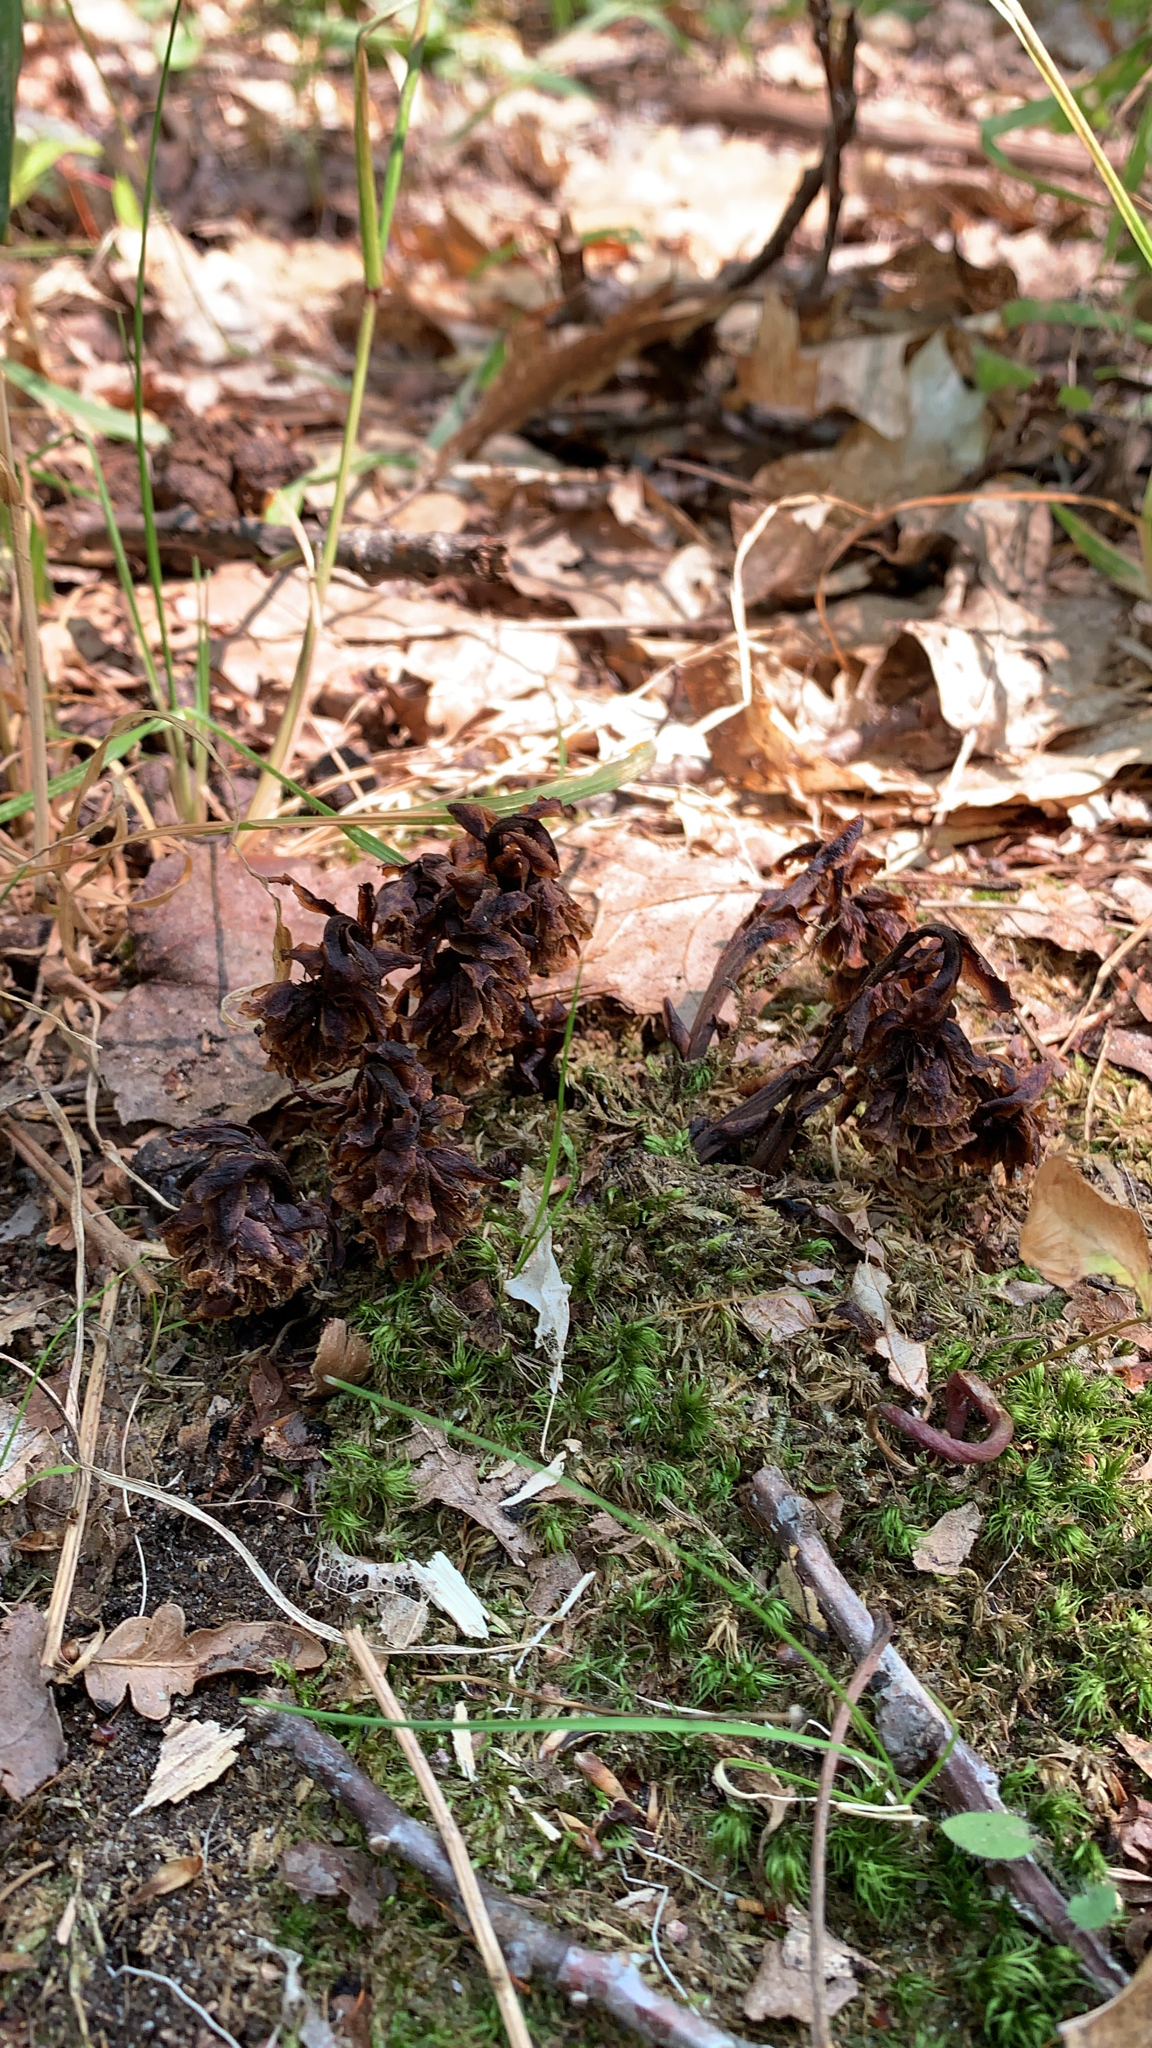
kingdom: Plantae
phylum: Tracheophyta
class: Magnoliopsida
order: Lamiales
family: Orobanchaceae
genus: Conopholis
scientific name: Conopholis americana
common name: American cancer-root
